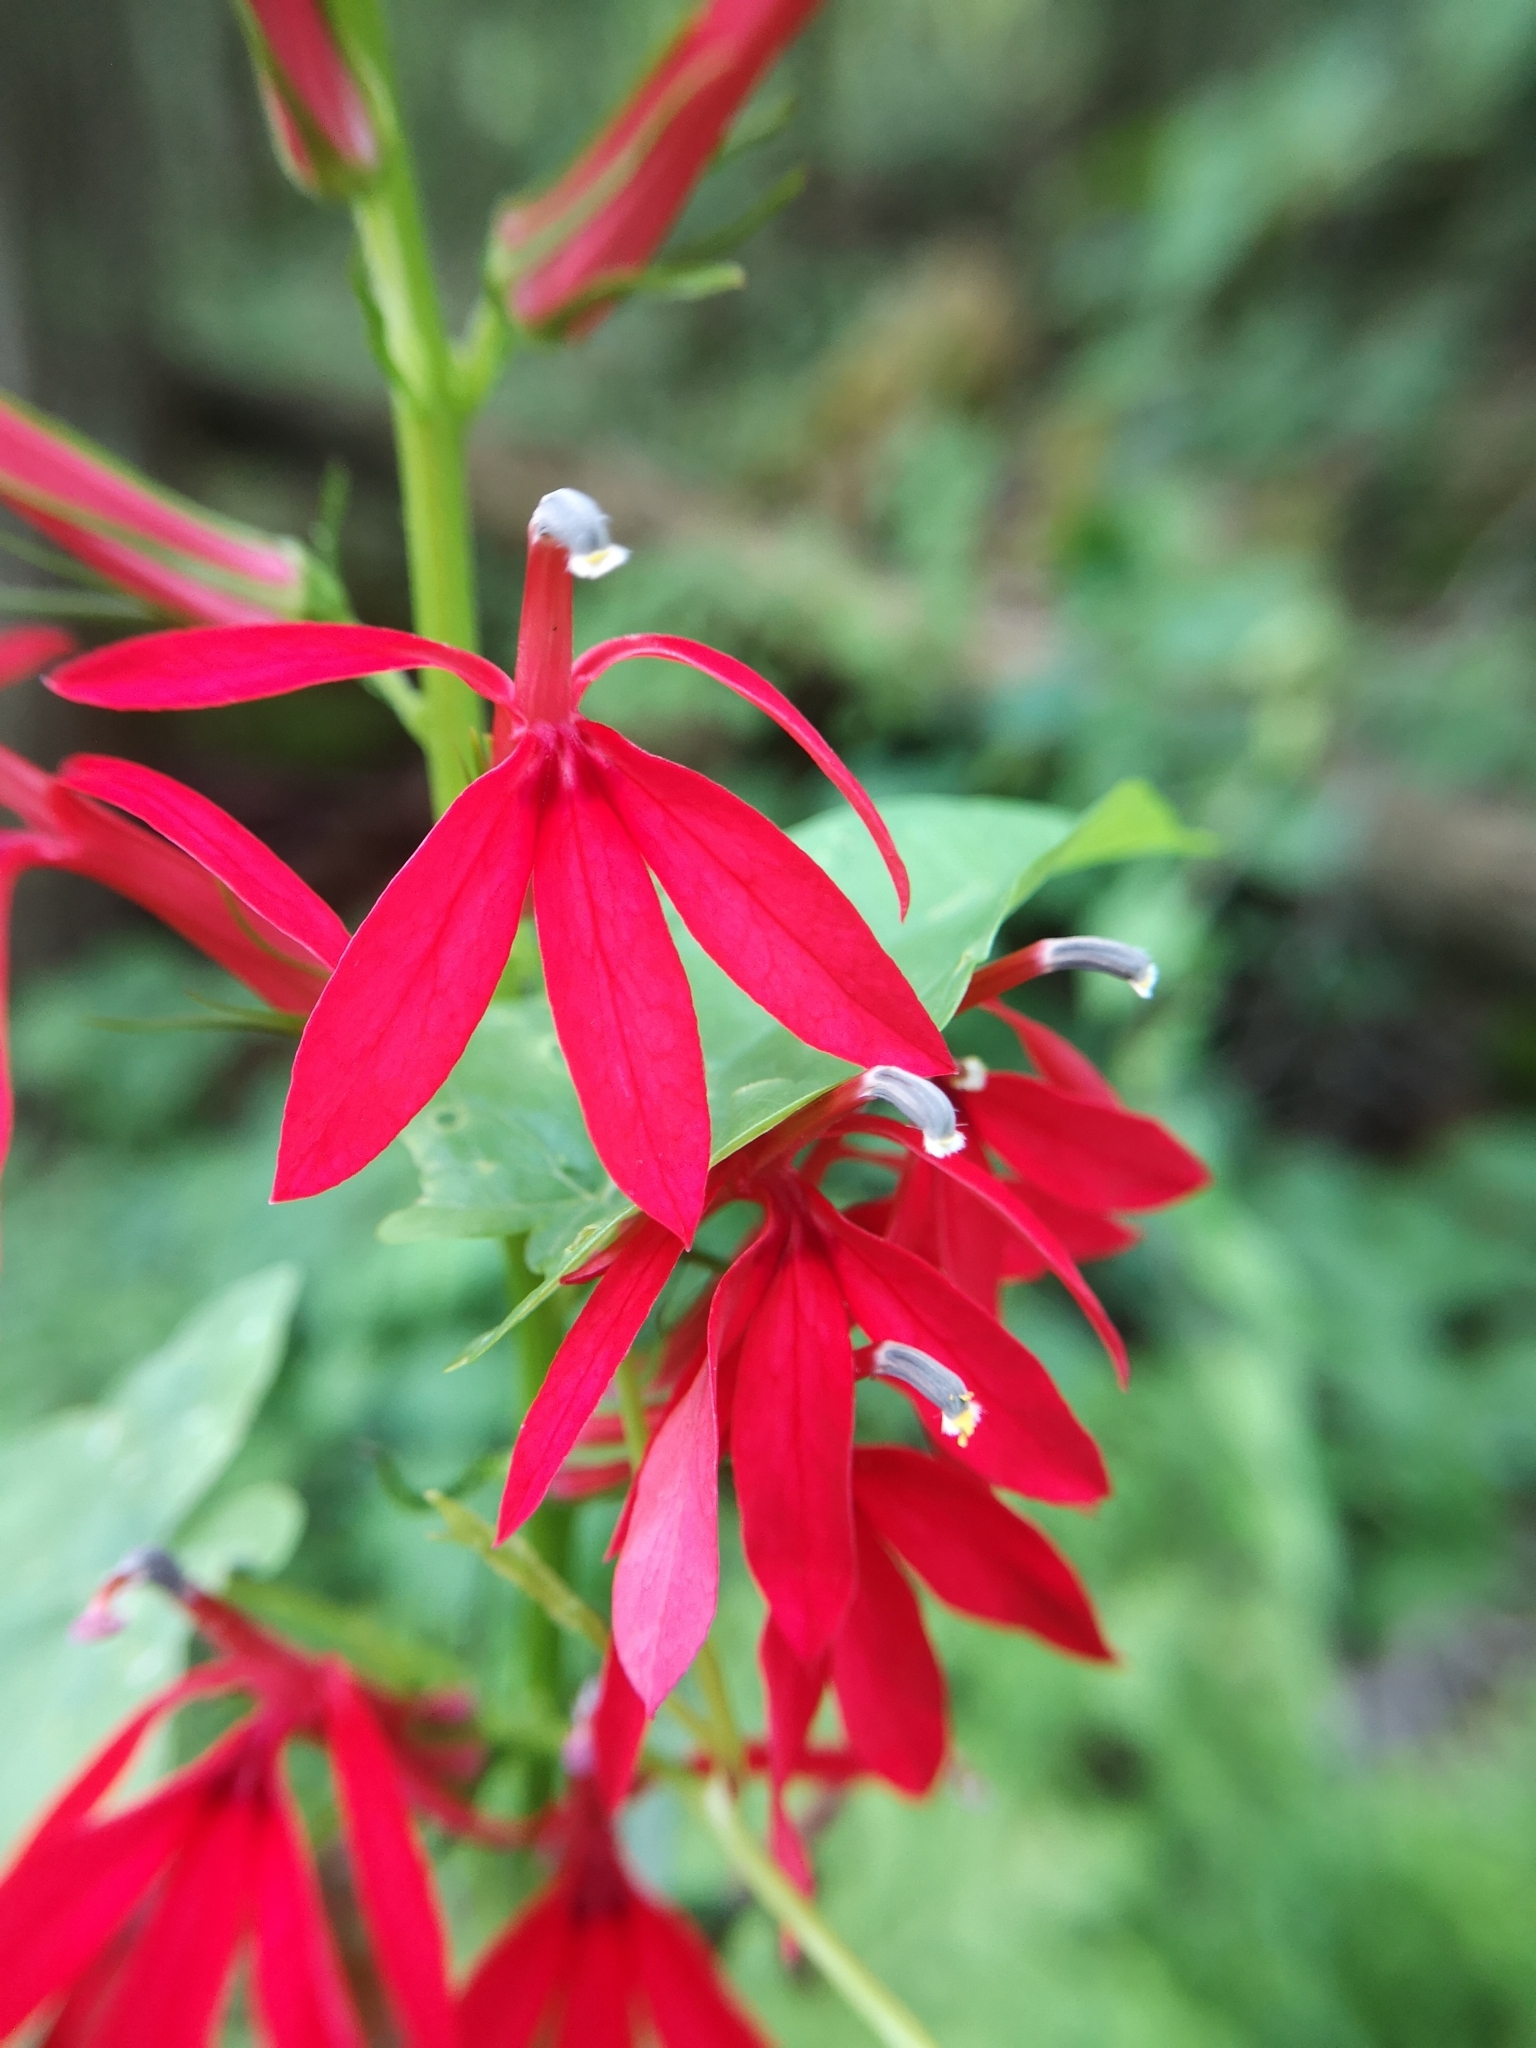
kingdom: Plantae
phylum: Tracheophyta
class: Magnoliopsida
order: Asterales
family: Campanulaceae
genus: Lobelia
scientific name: Lobelia cardinalis
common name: Cardinal flower
